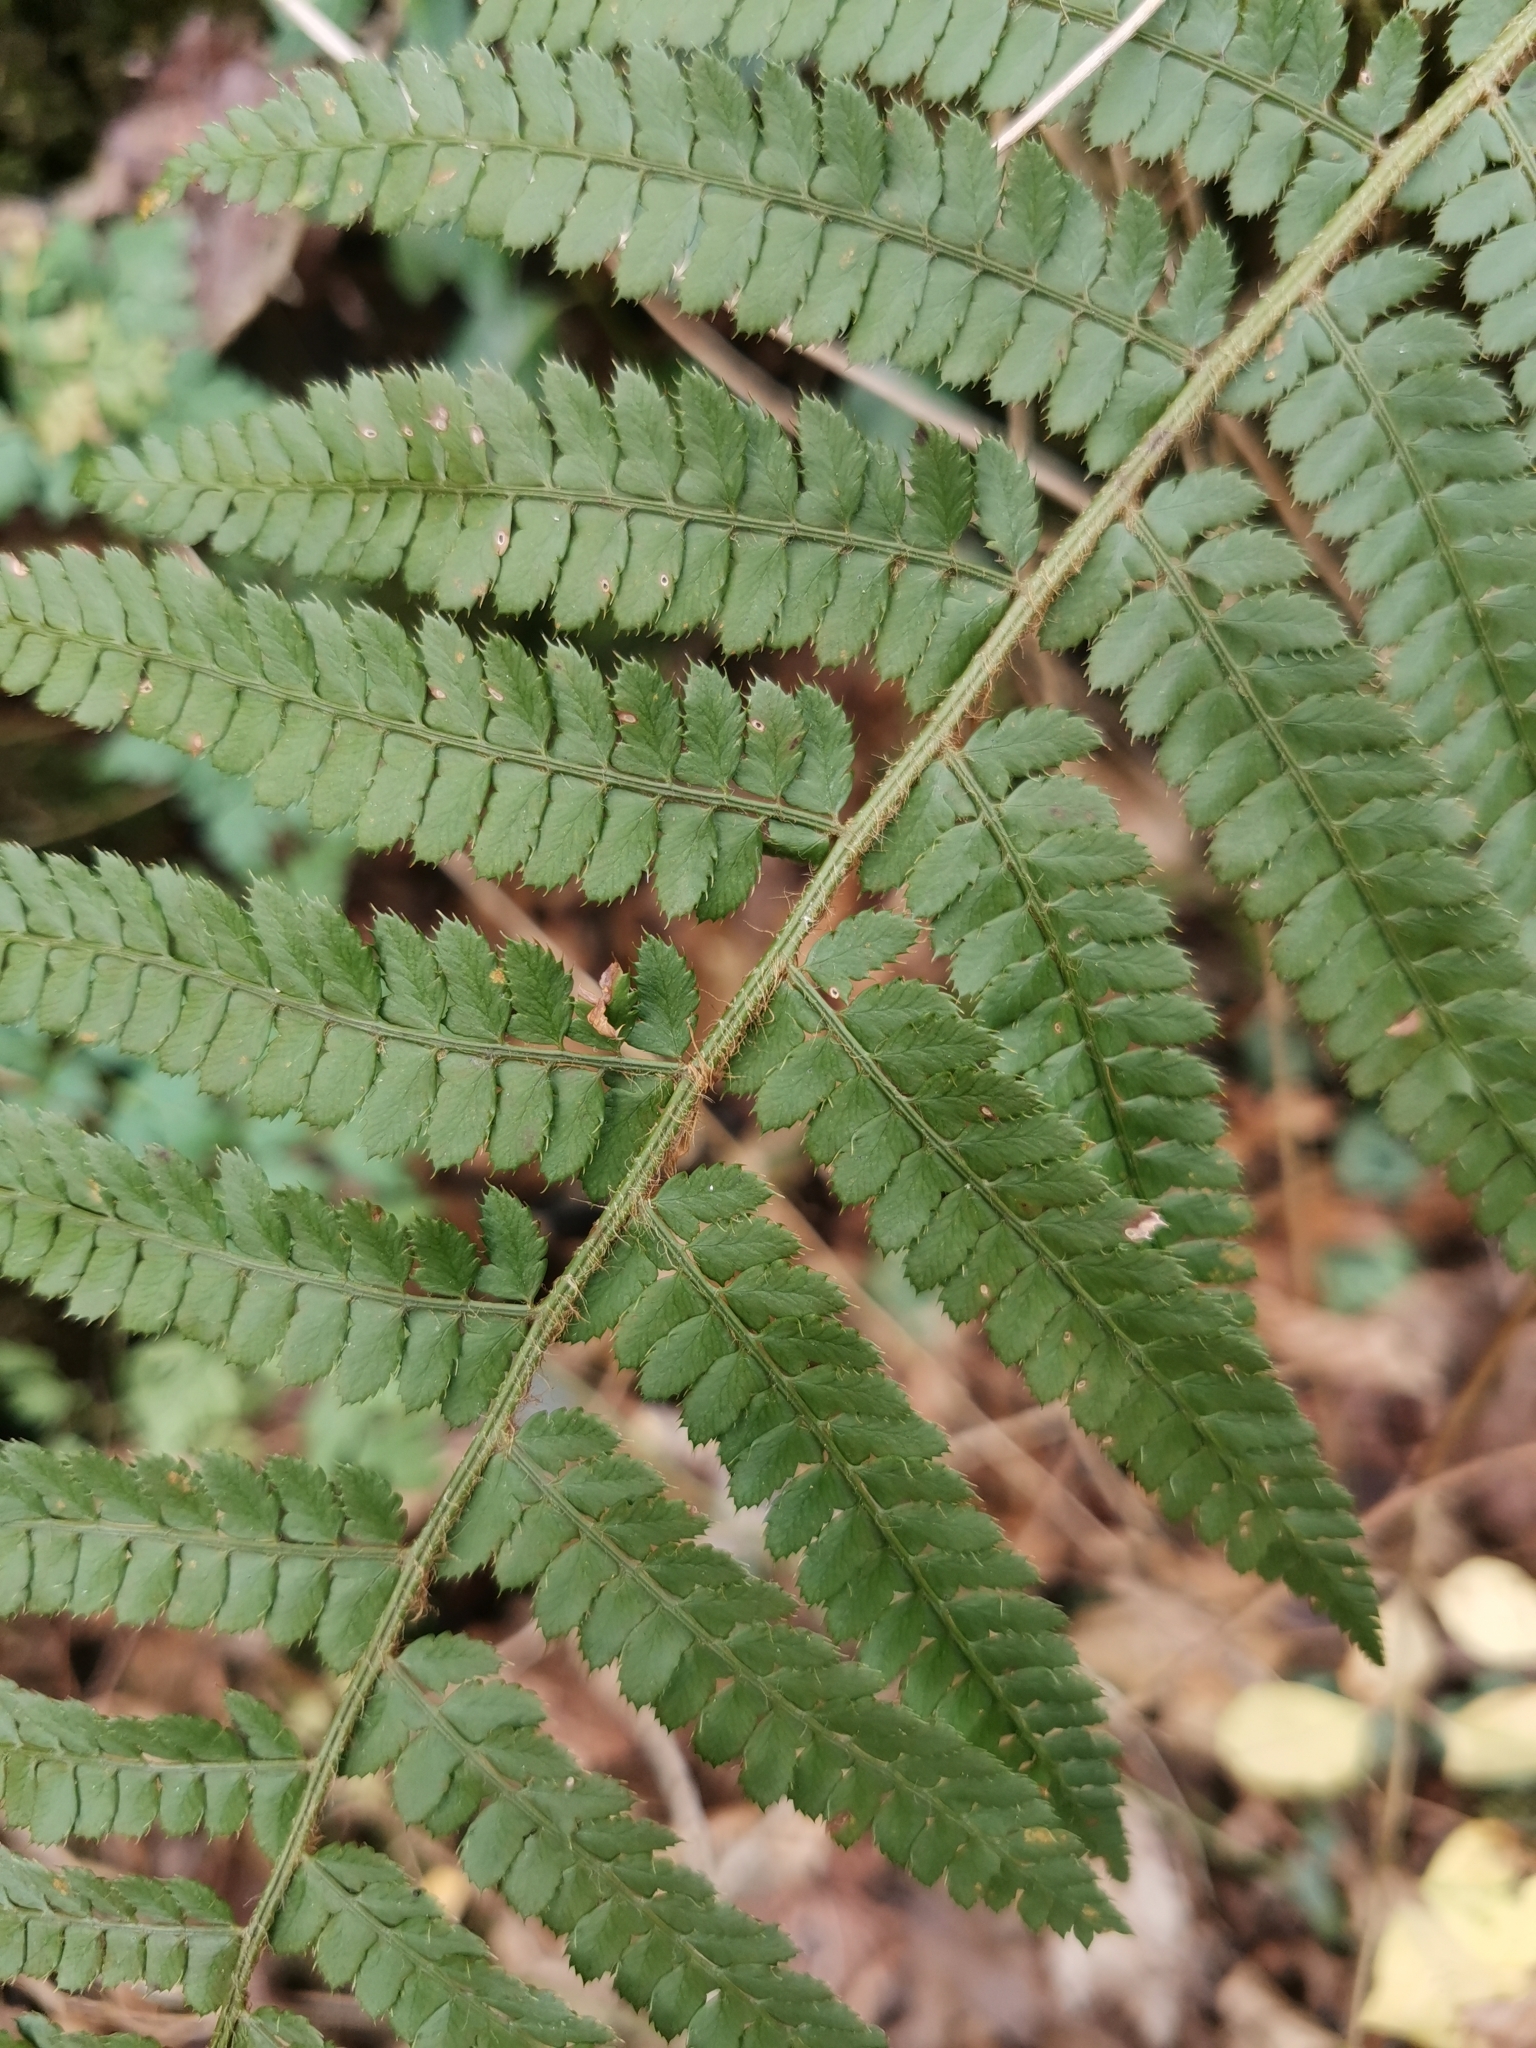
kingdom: Plantae
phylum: Tracheophyta
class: Polypodiopsida
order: Polypodiales
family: Dryopteridaceae
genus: Polystichum
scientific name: Polystichum setiferum
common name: Soft shield-fern
